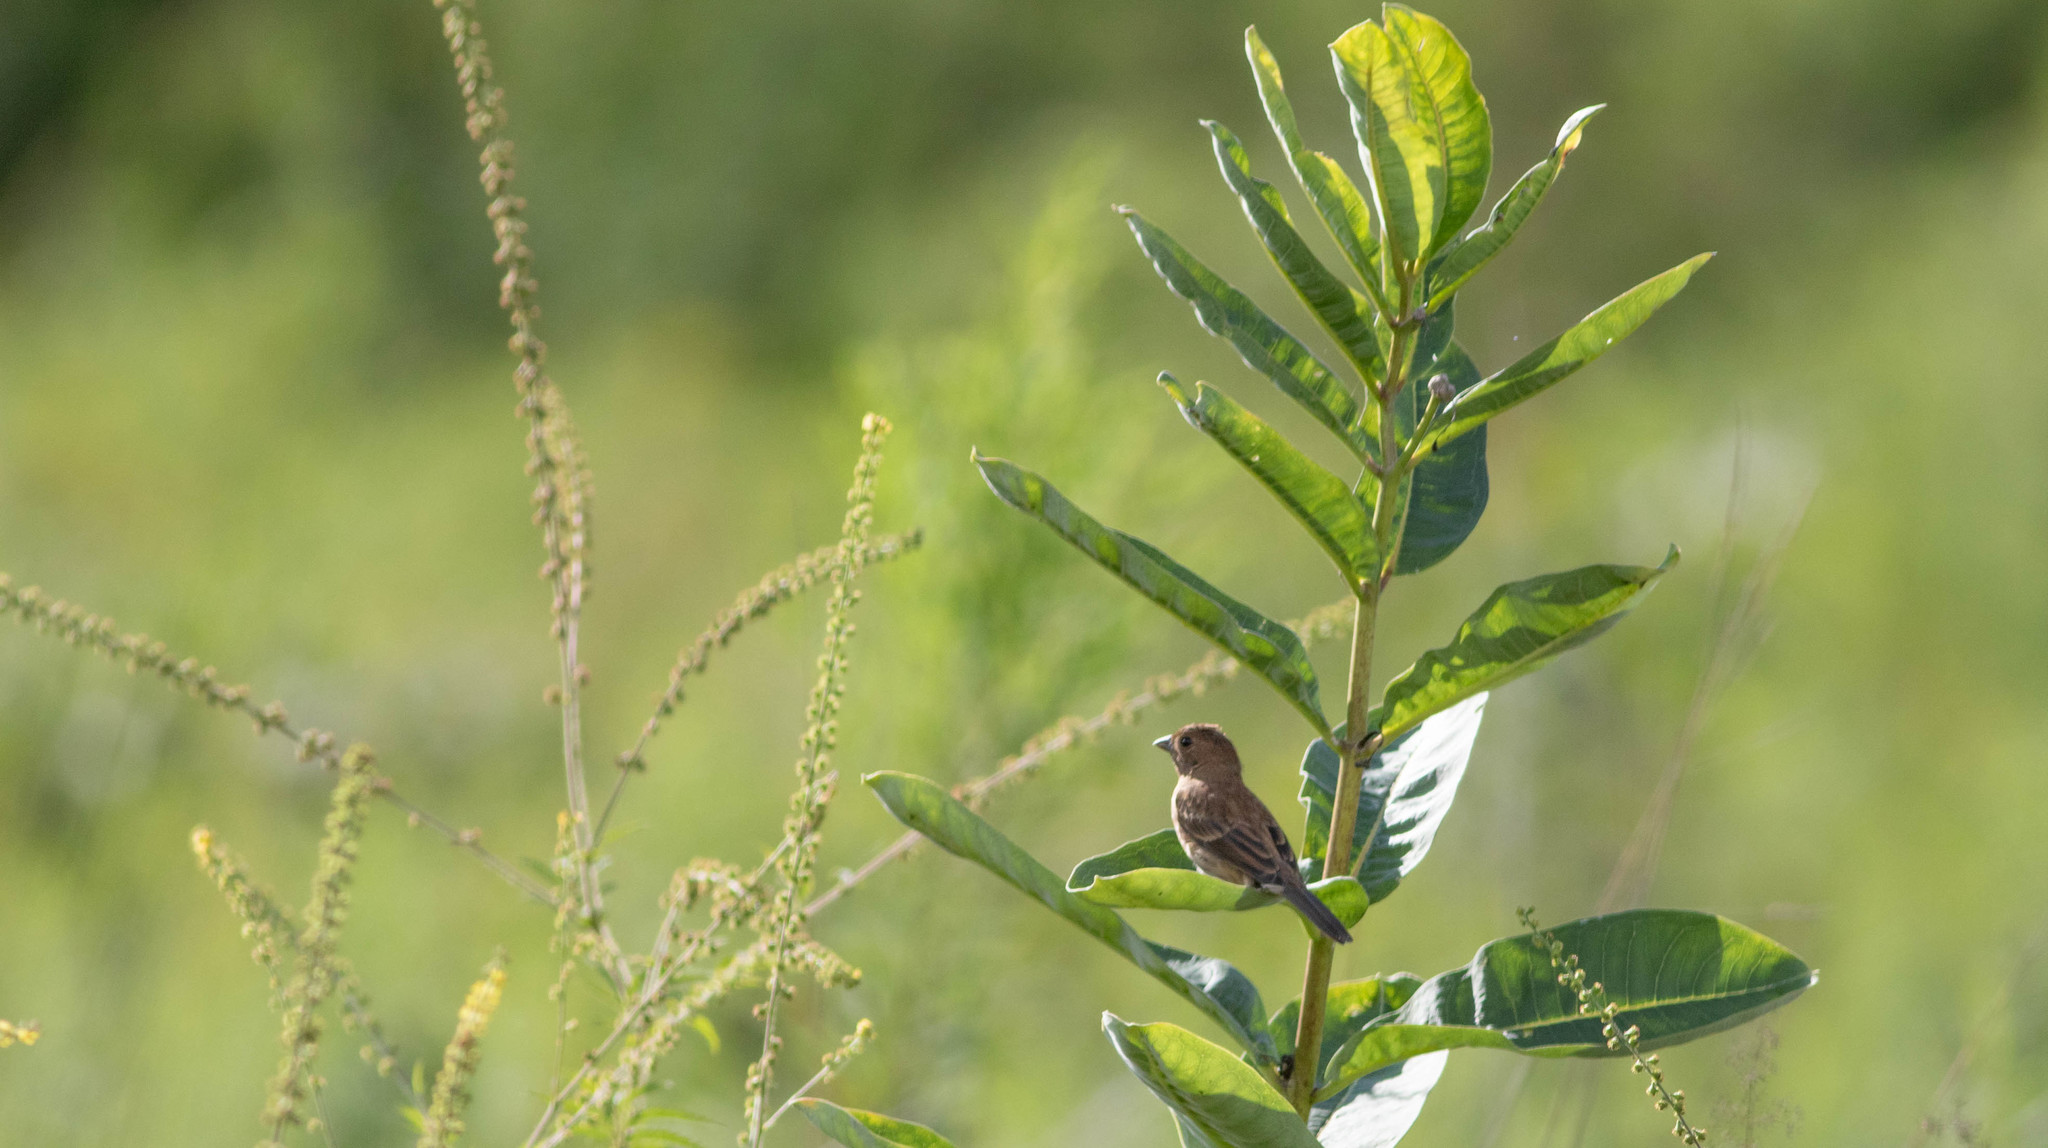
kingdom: Animalia
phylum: Chordata
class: Aves
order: Passeriformes
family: Cardinalidae
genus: Passerina
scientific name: Passerina cyanea
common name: Indigo bunting
